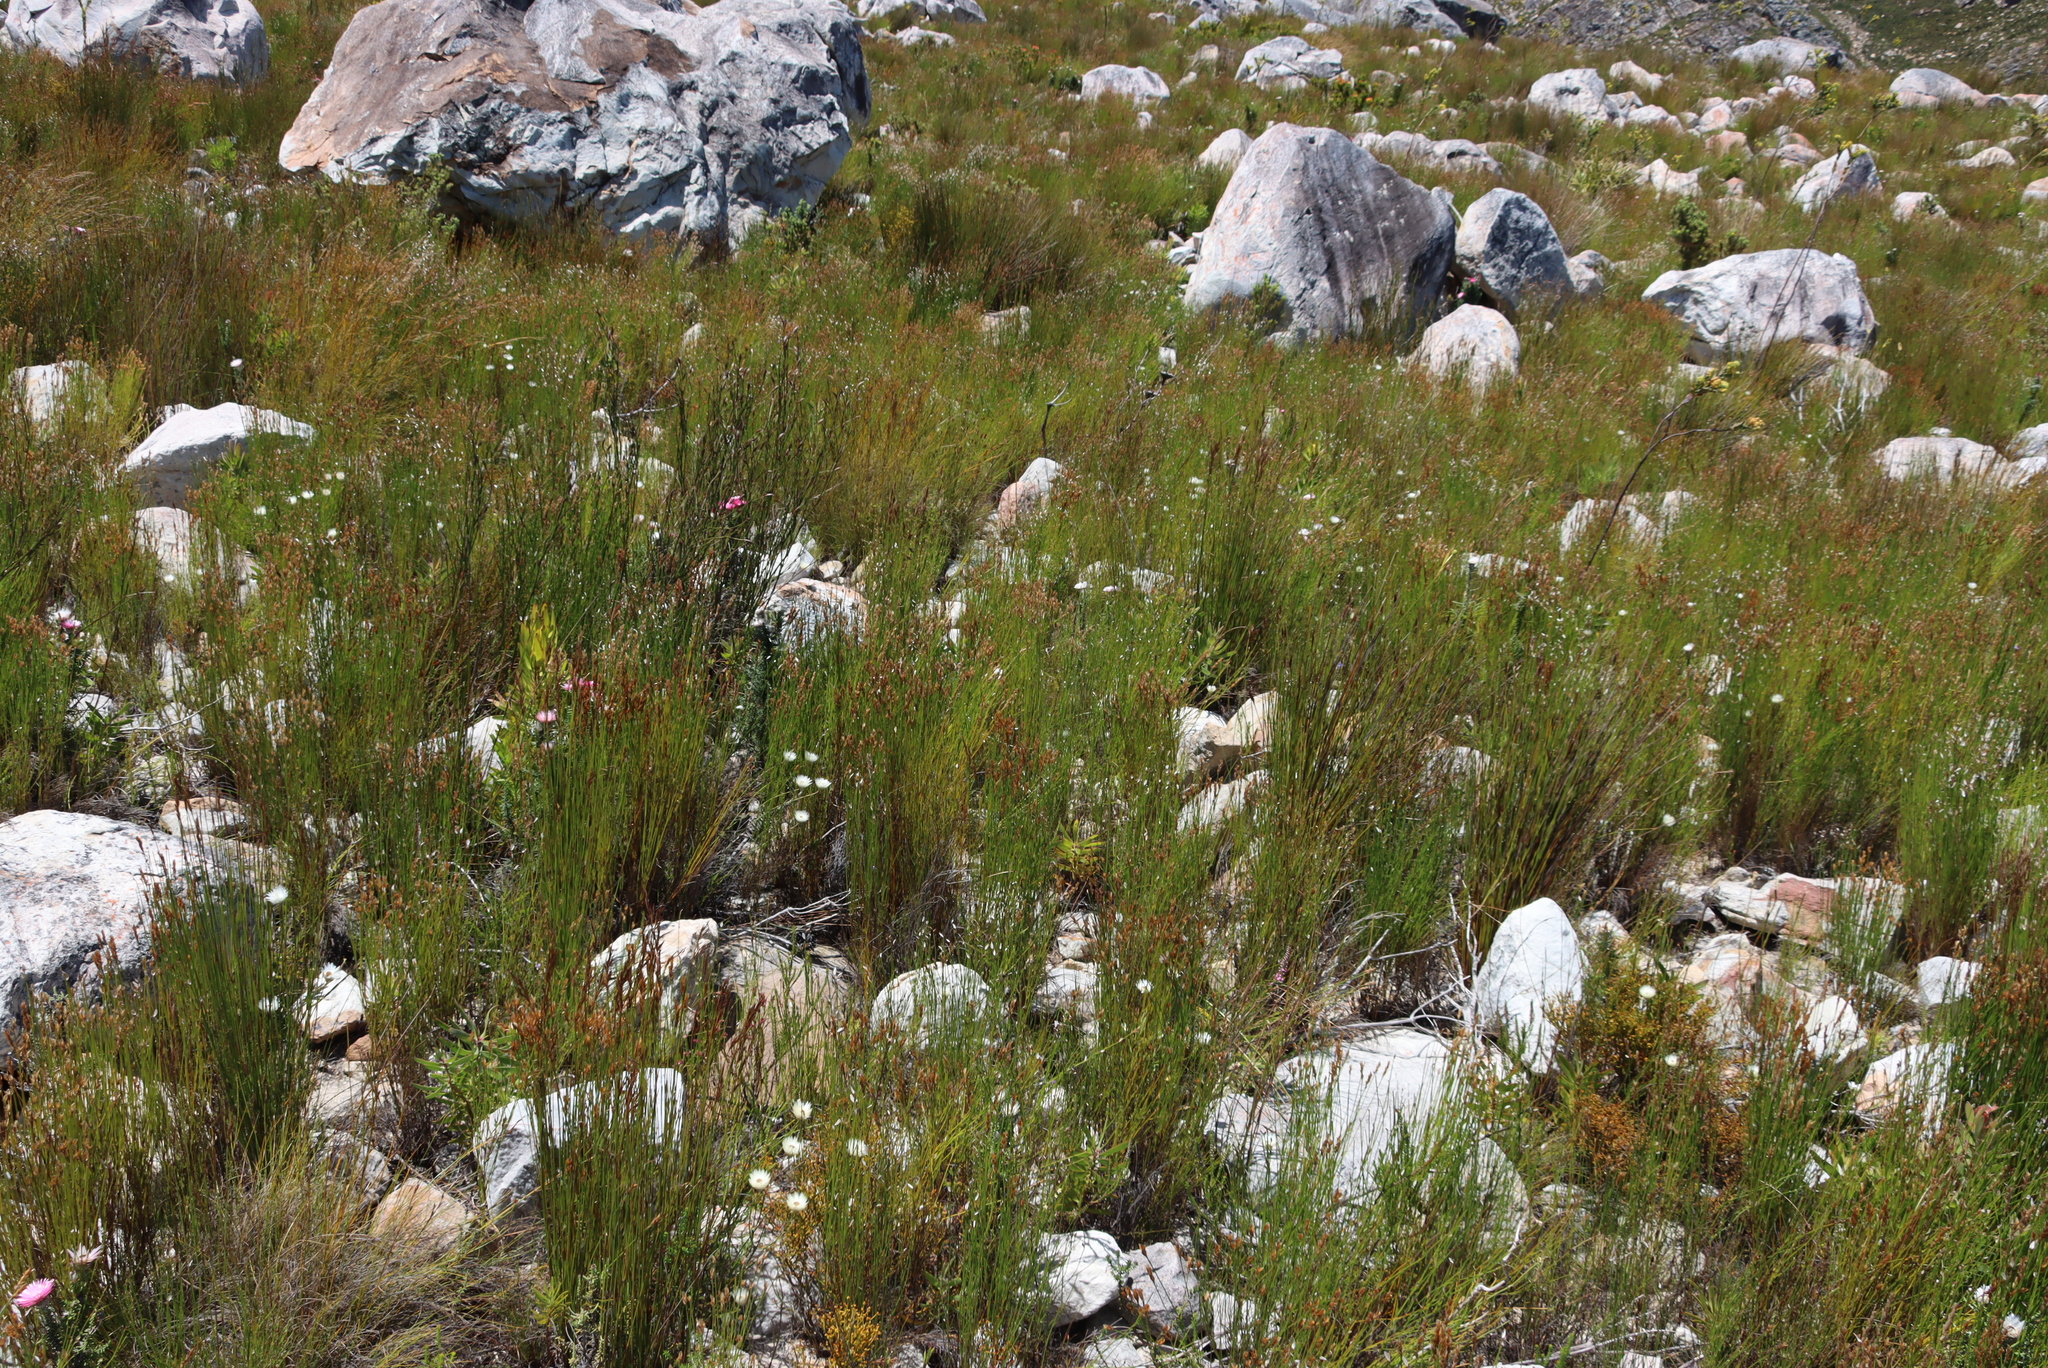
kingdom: Plantae
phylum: Tracheophyta
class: Magnoliopsida
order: Asterales
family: Asteraceae
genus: Edmondia
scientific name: Edmondia sesamoides
